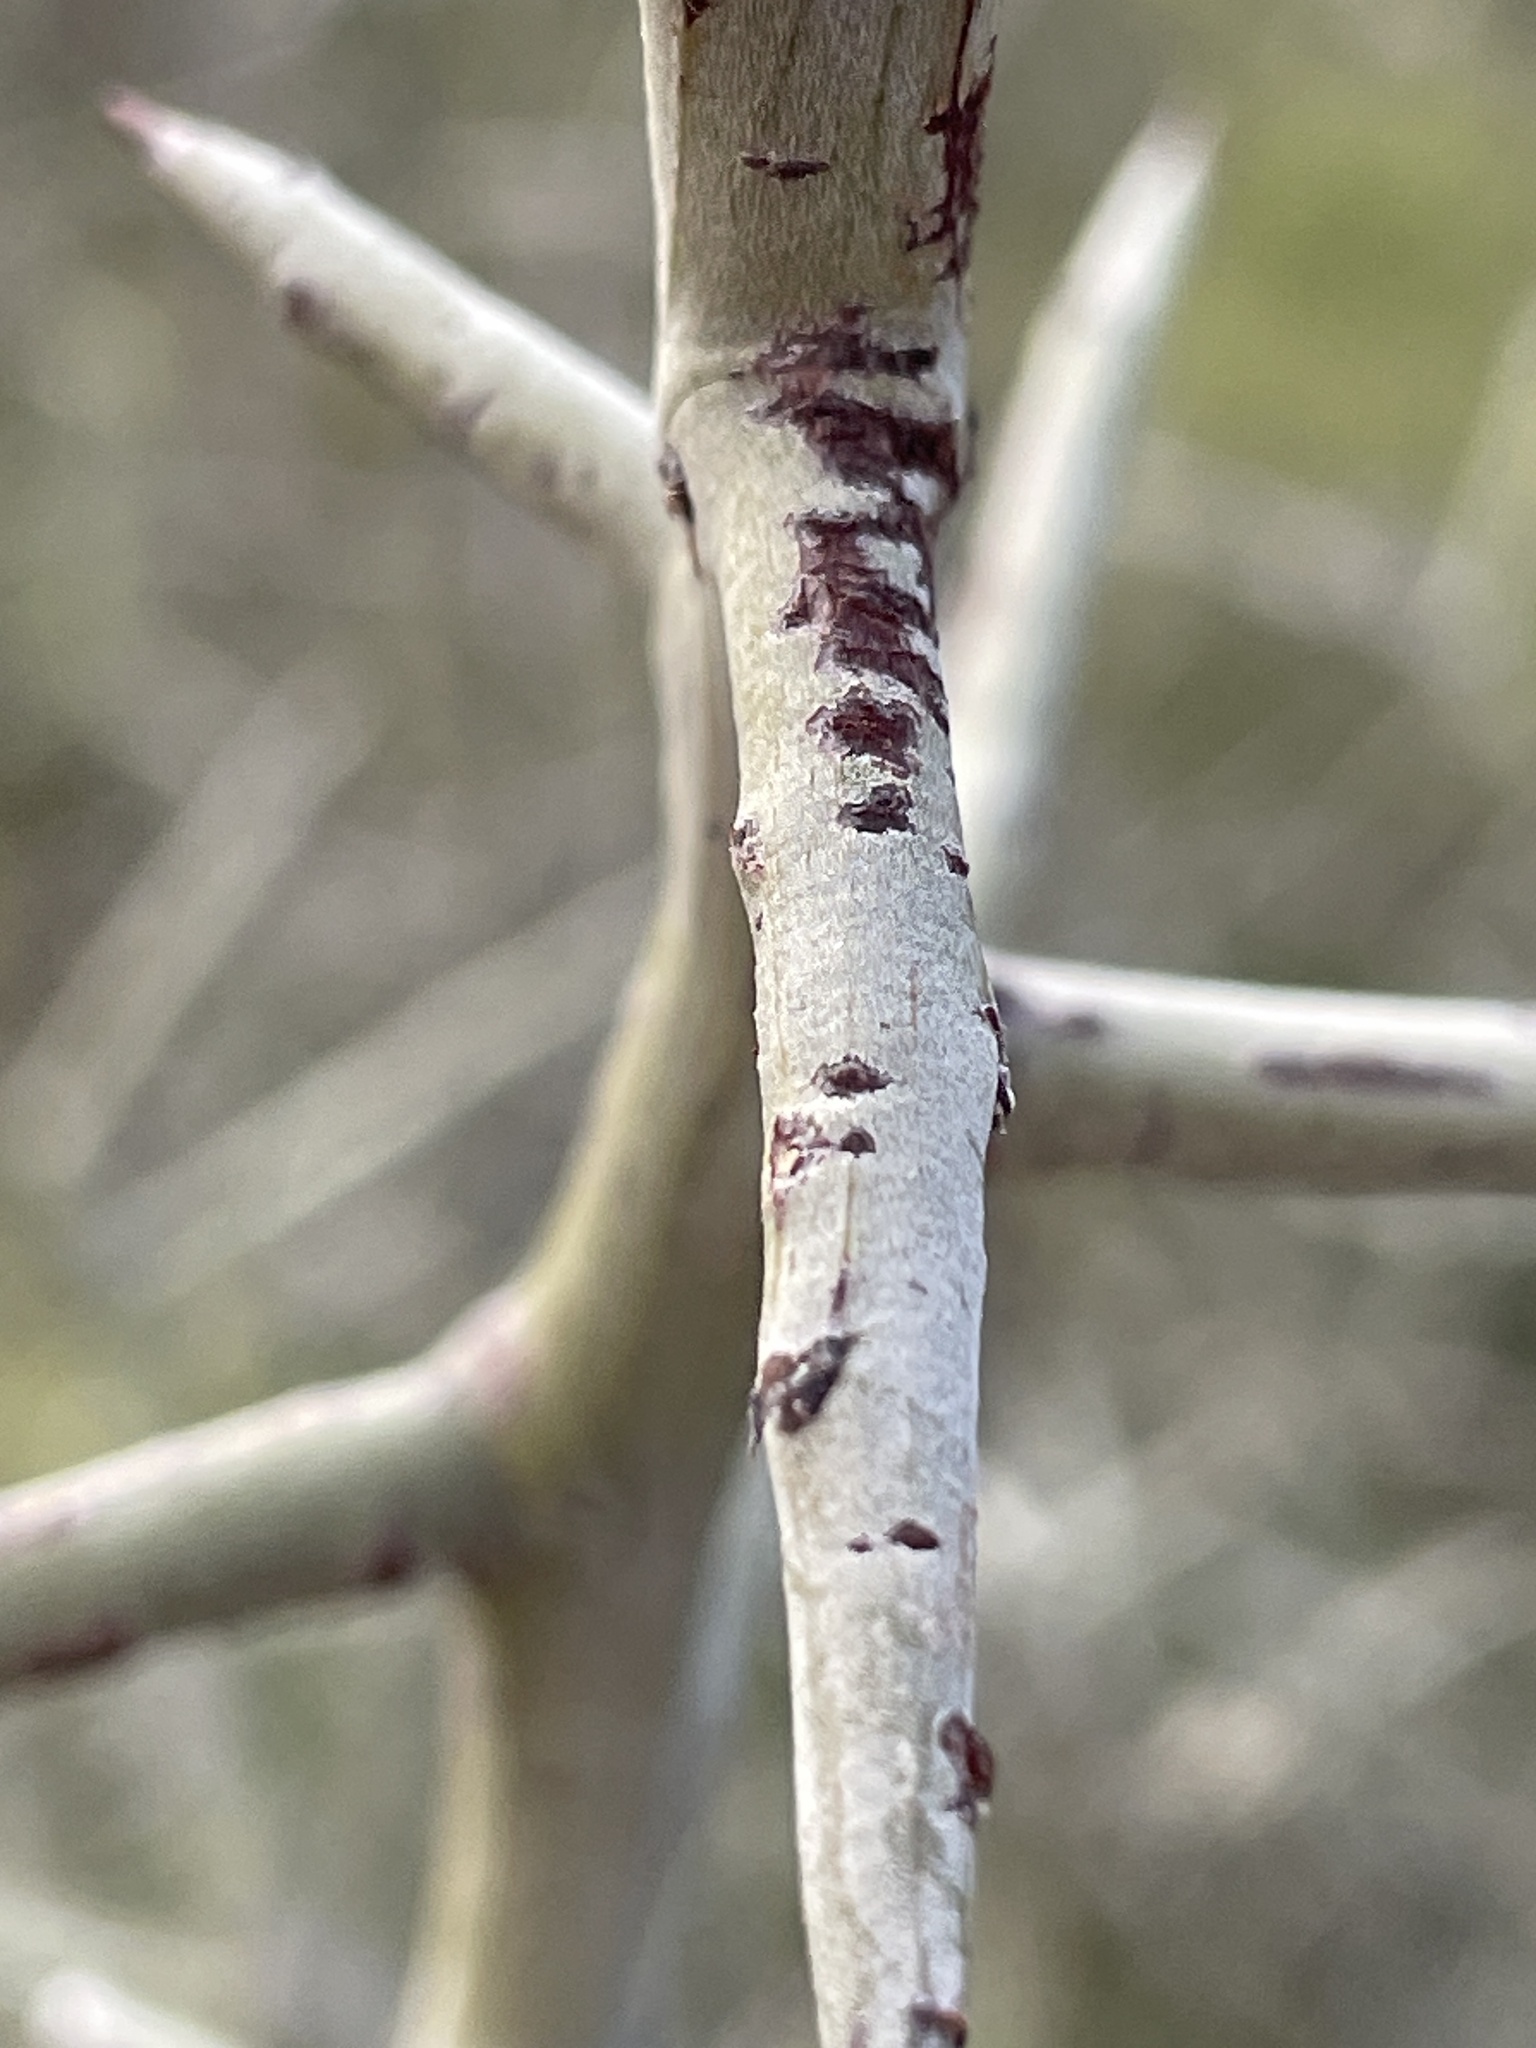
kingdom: Plantae
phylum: Tracheophyta
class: Magnoliopsida
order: Rosales
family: Rhamnaceae
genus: Sarcomphalus
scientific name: Sarcomphalus obtusifolius
